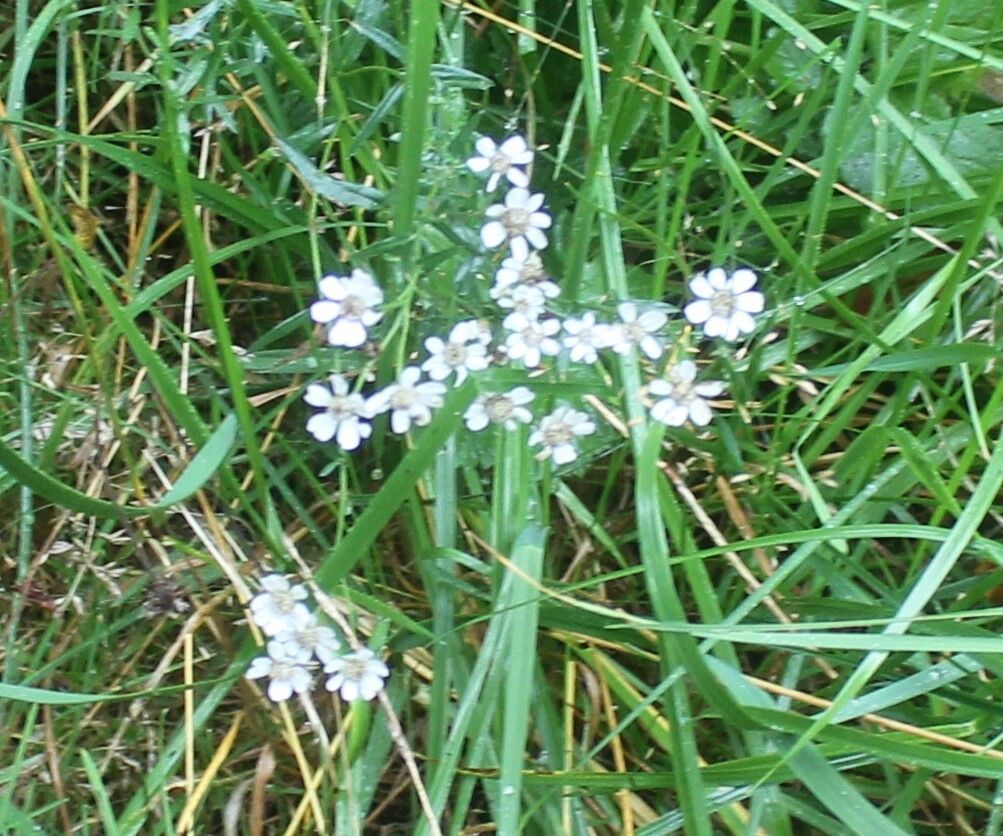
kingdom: Plantae
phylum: Tracheophyta
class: Magnoliopsida
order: Asterales
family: Asteraceae
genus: Achillea
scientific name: Achillea ptarmica
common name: Sneezeweed
